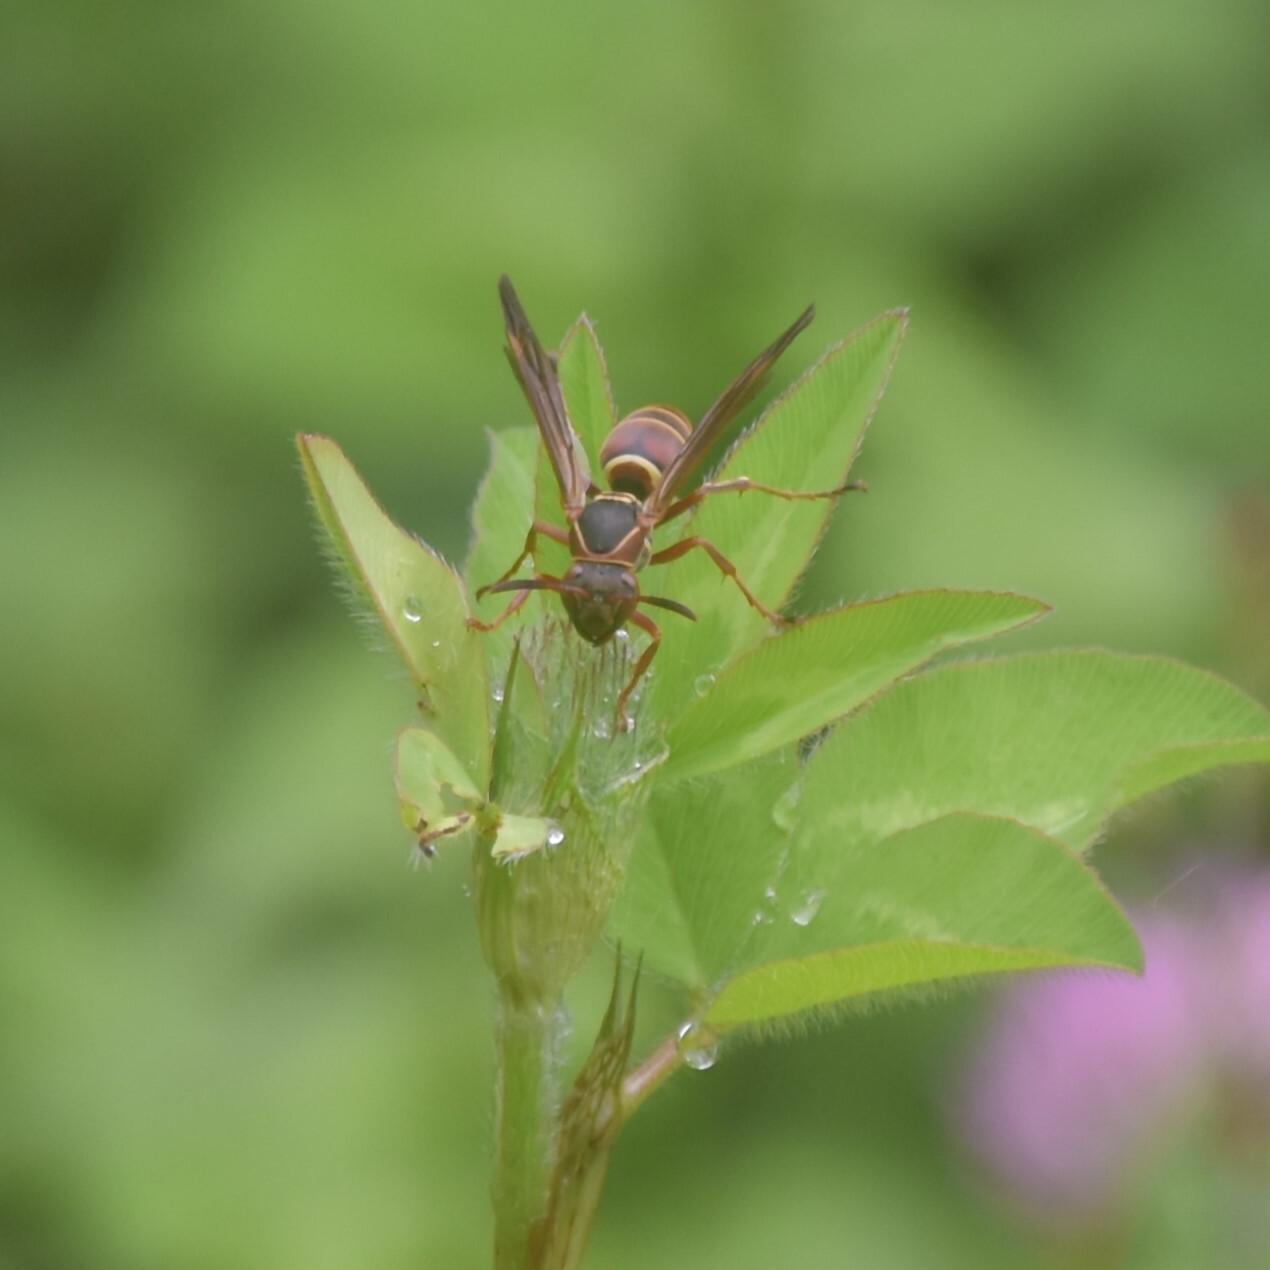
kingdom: Animalia
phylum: Arthropoda
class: Insecta
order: Hymenoptera
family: Eumenidae
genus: Knemodynerus
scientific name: Knemodynerus multimaculatus
